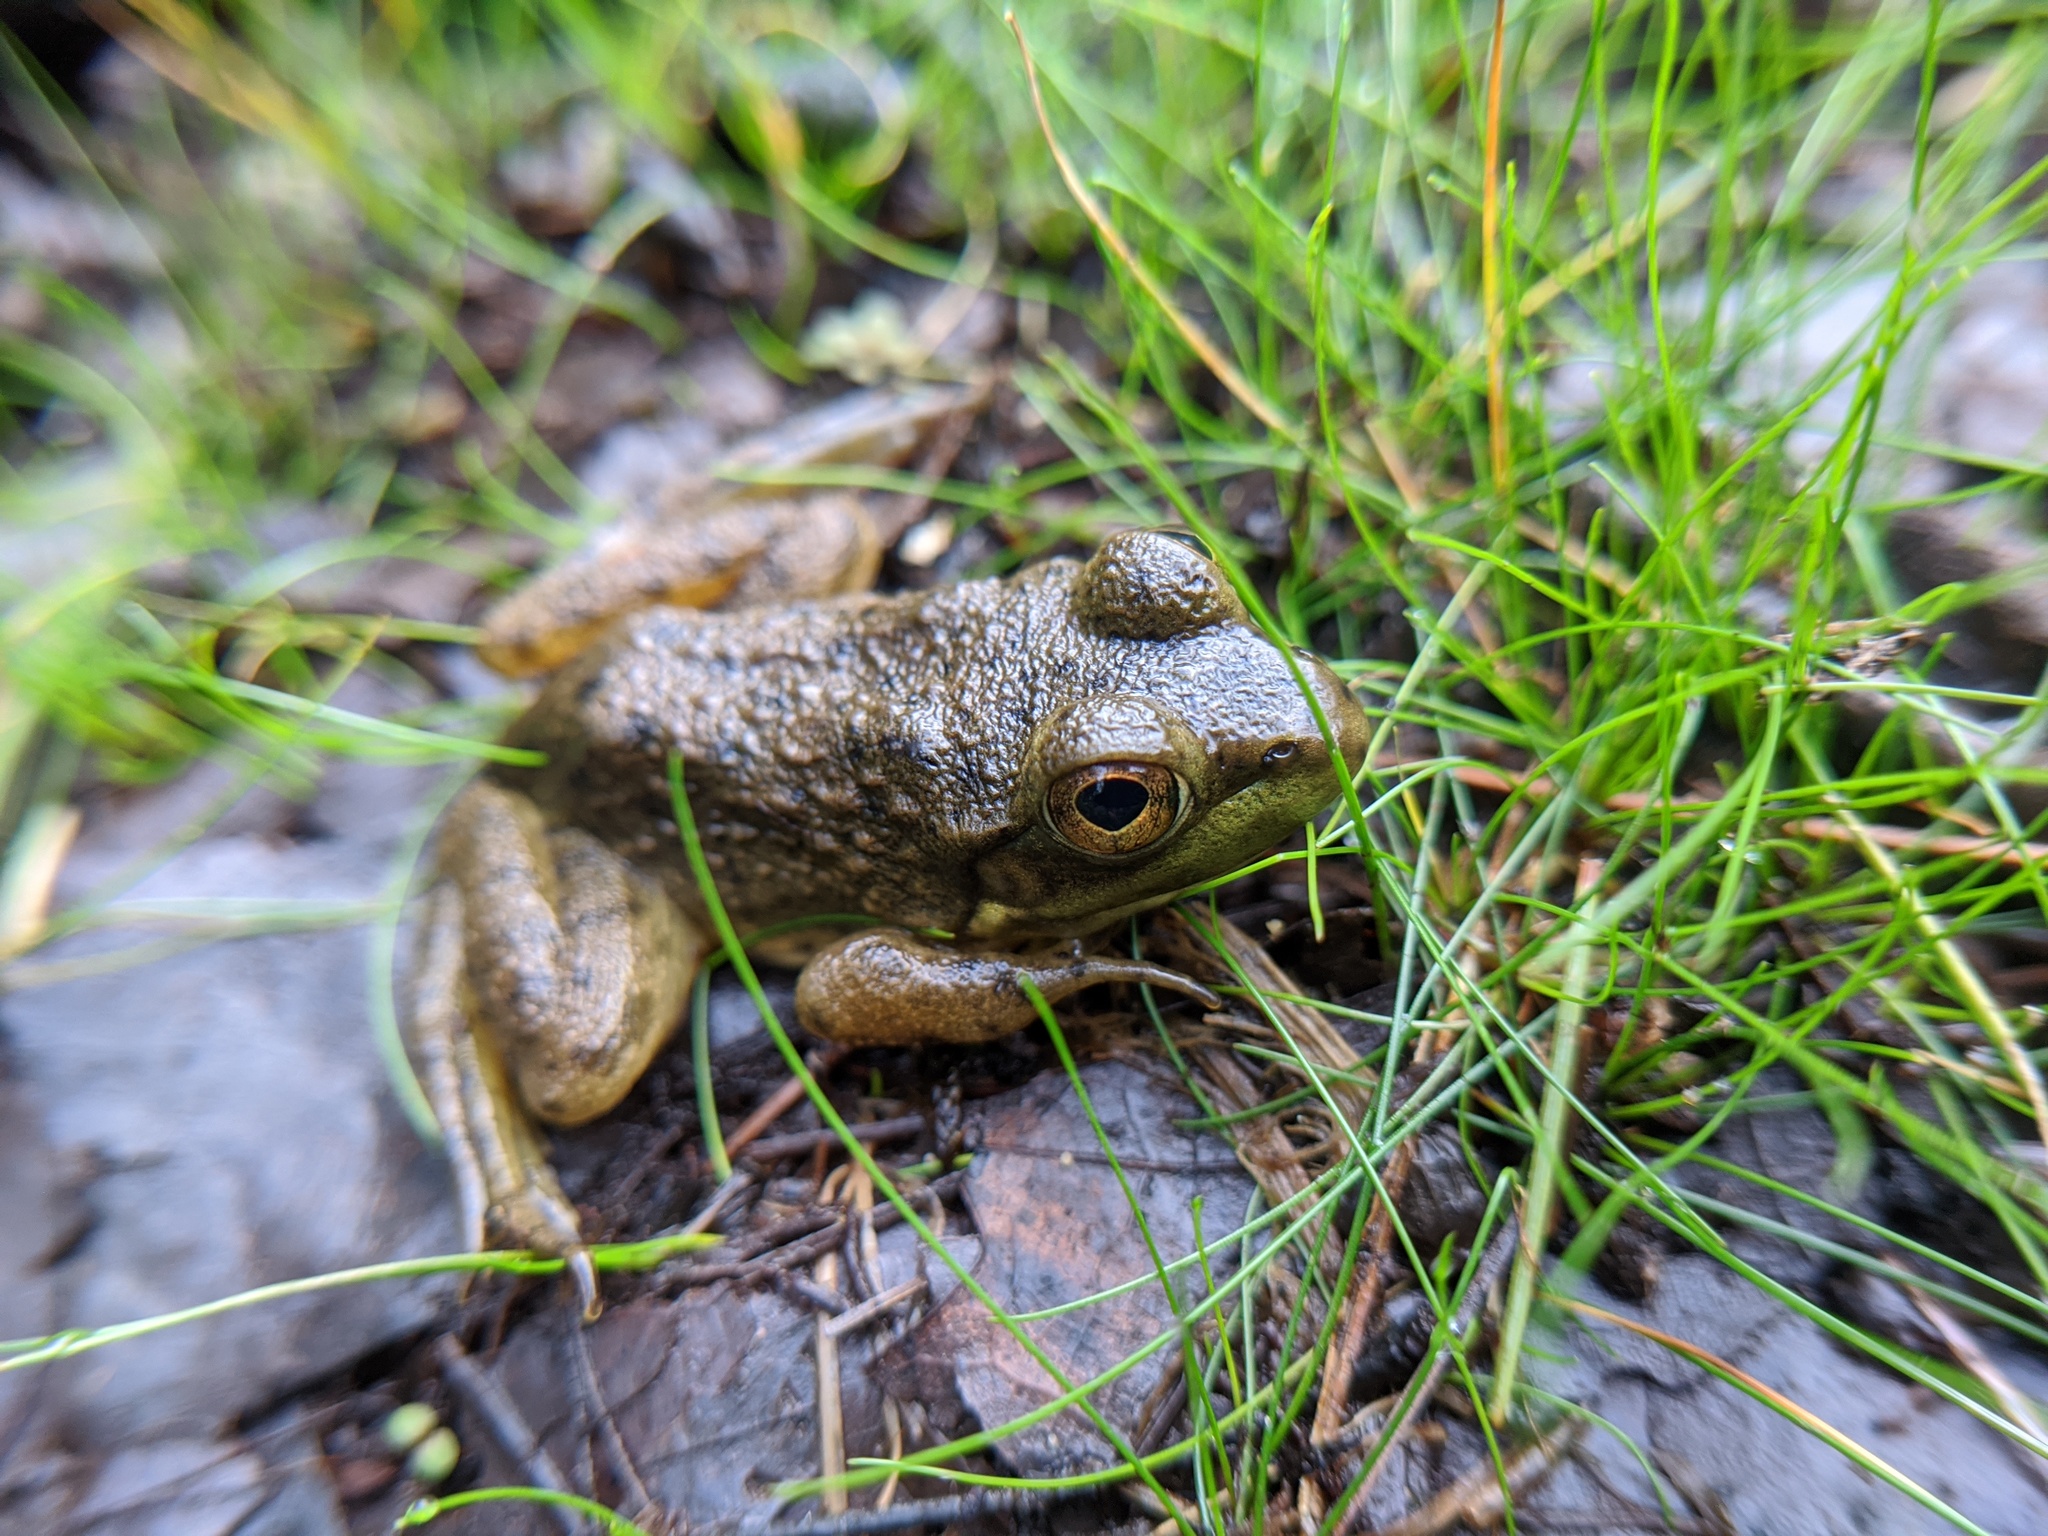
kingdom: Animalia
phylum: Chordata
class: Amphibia
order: Anura
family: Ranidae
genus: Lithobates
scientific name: Lithobates catesbeianus
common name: American bullfrog
